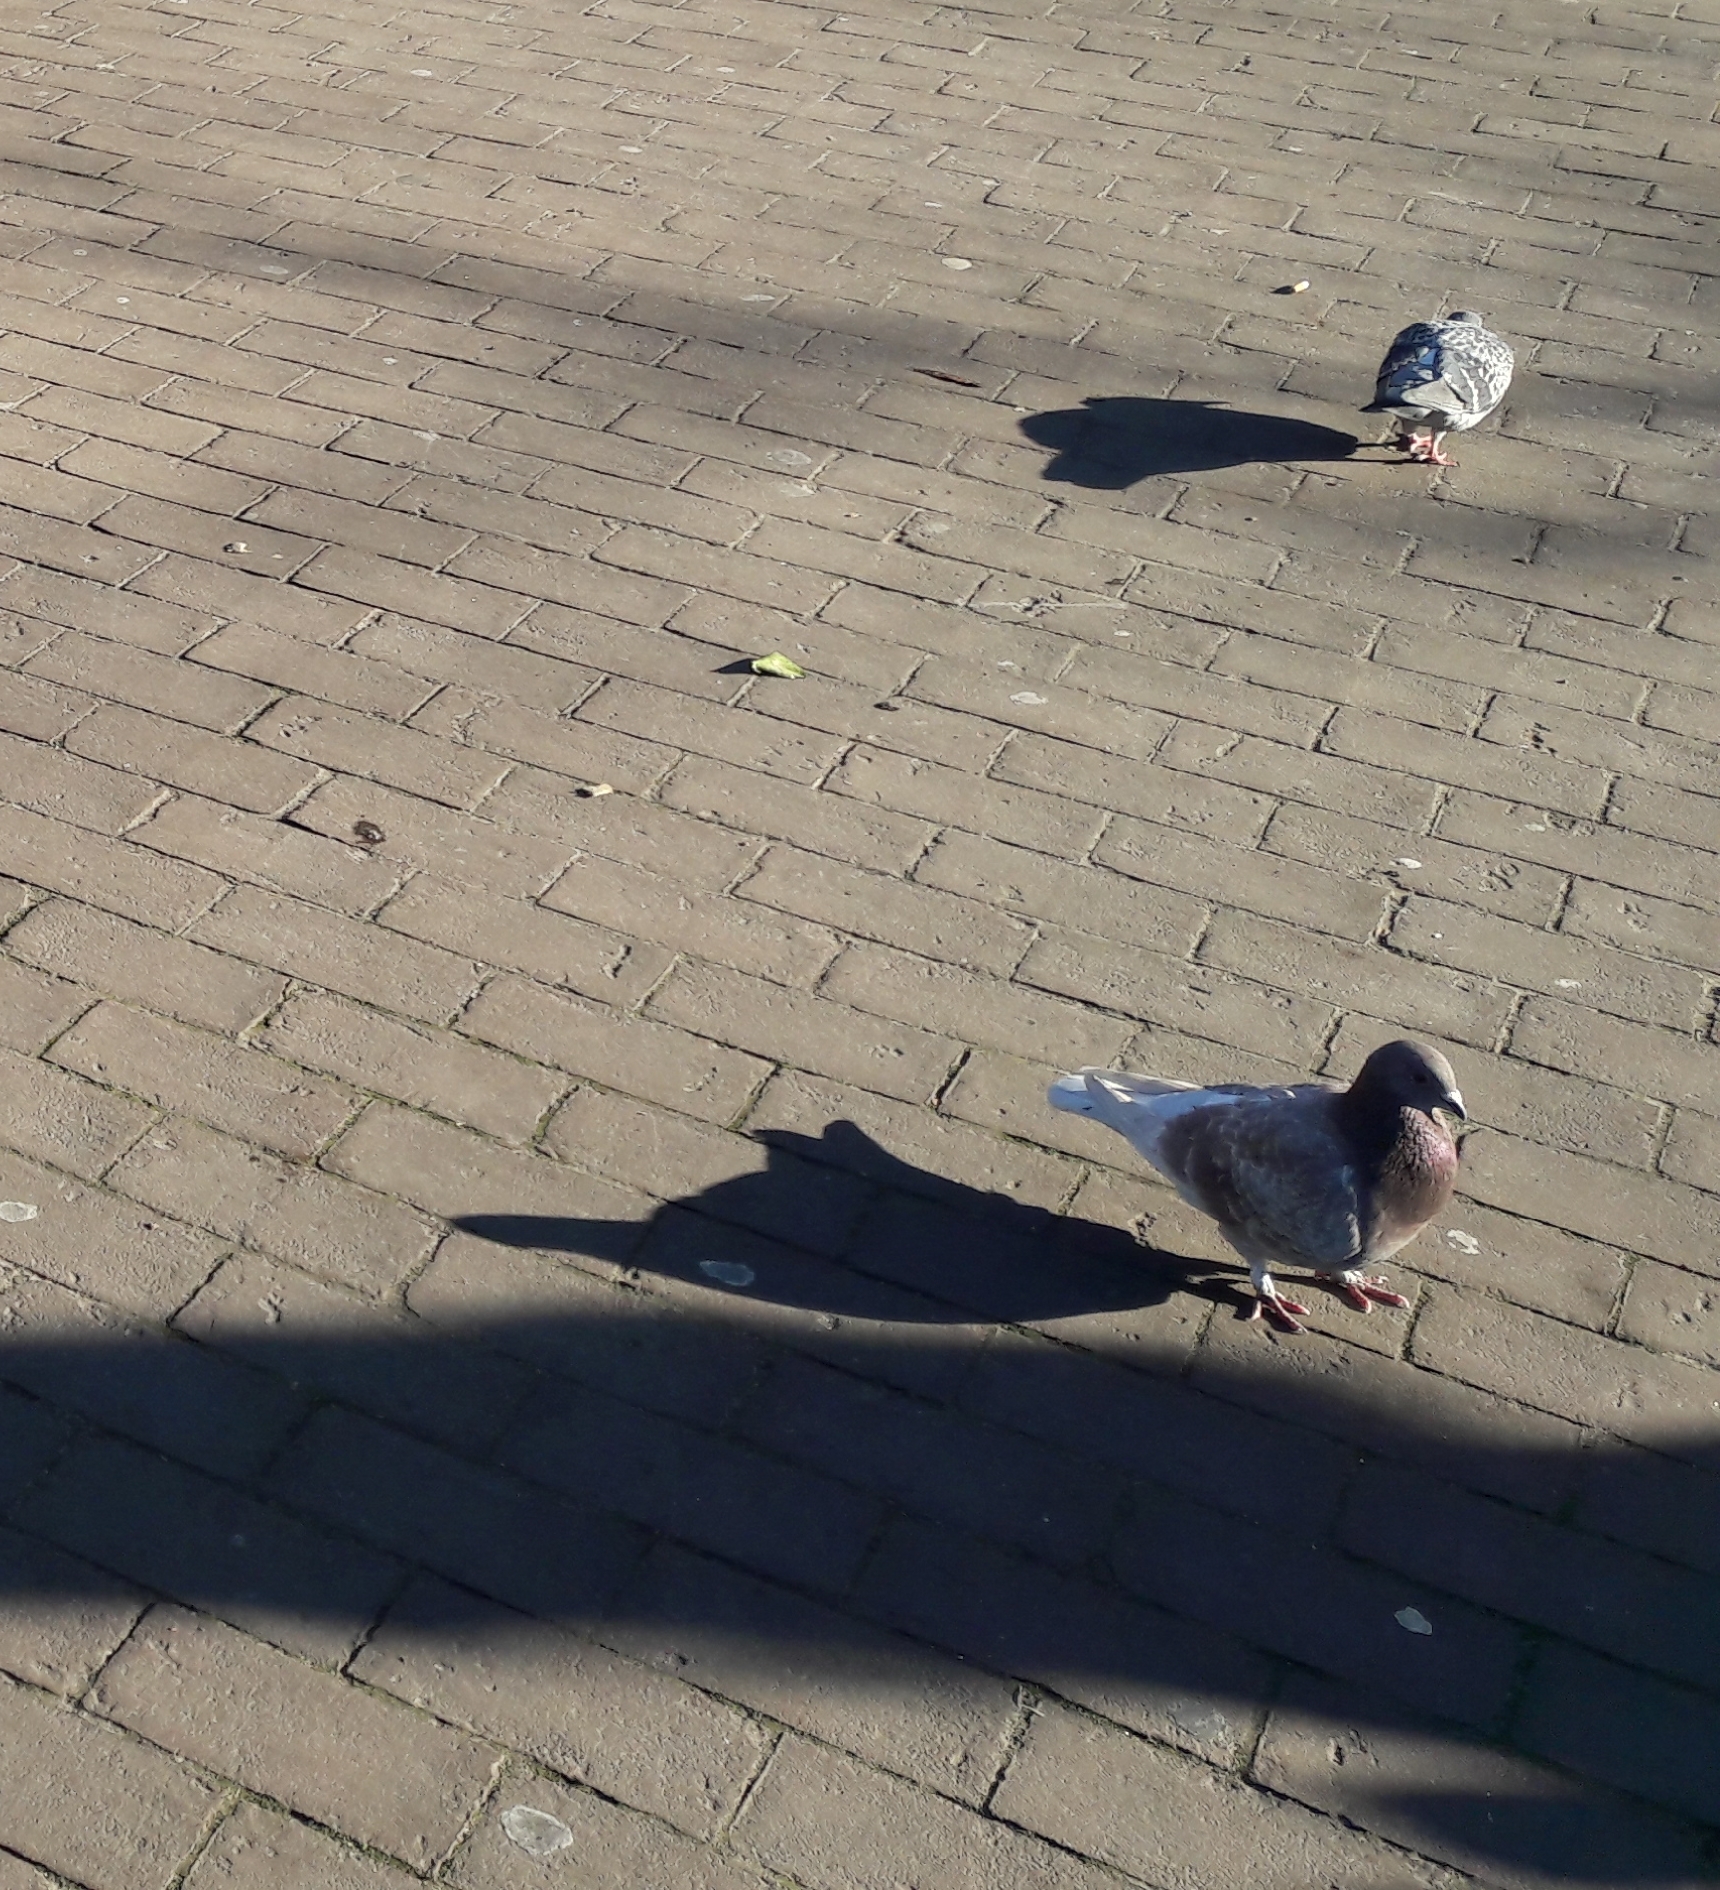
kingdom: Animalia
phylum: Chordata
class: Aves
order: Columbiformes
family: Columbidae
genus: Columba
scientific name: Columba livia
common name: Rock pigeon
